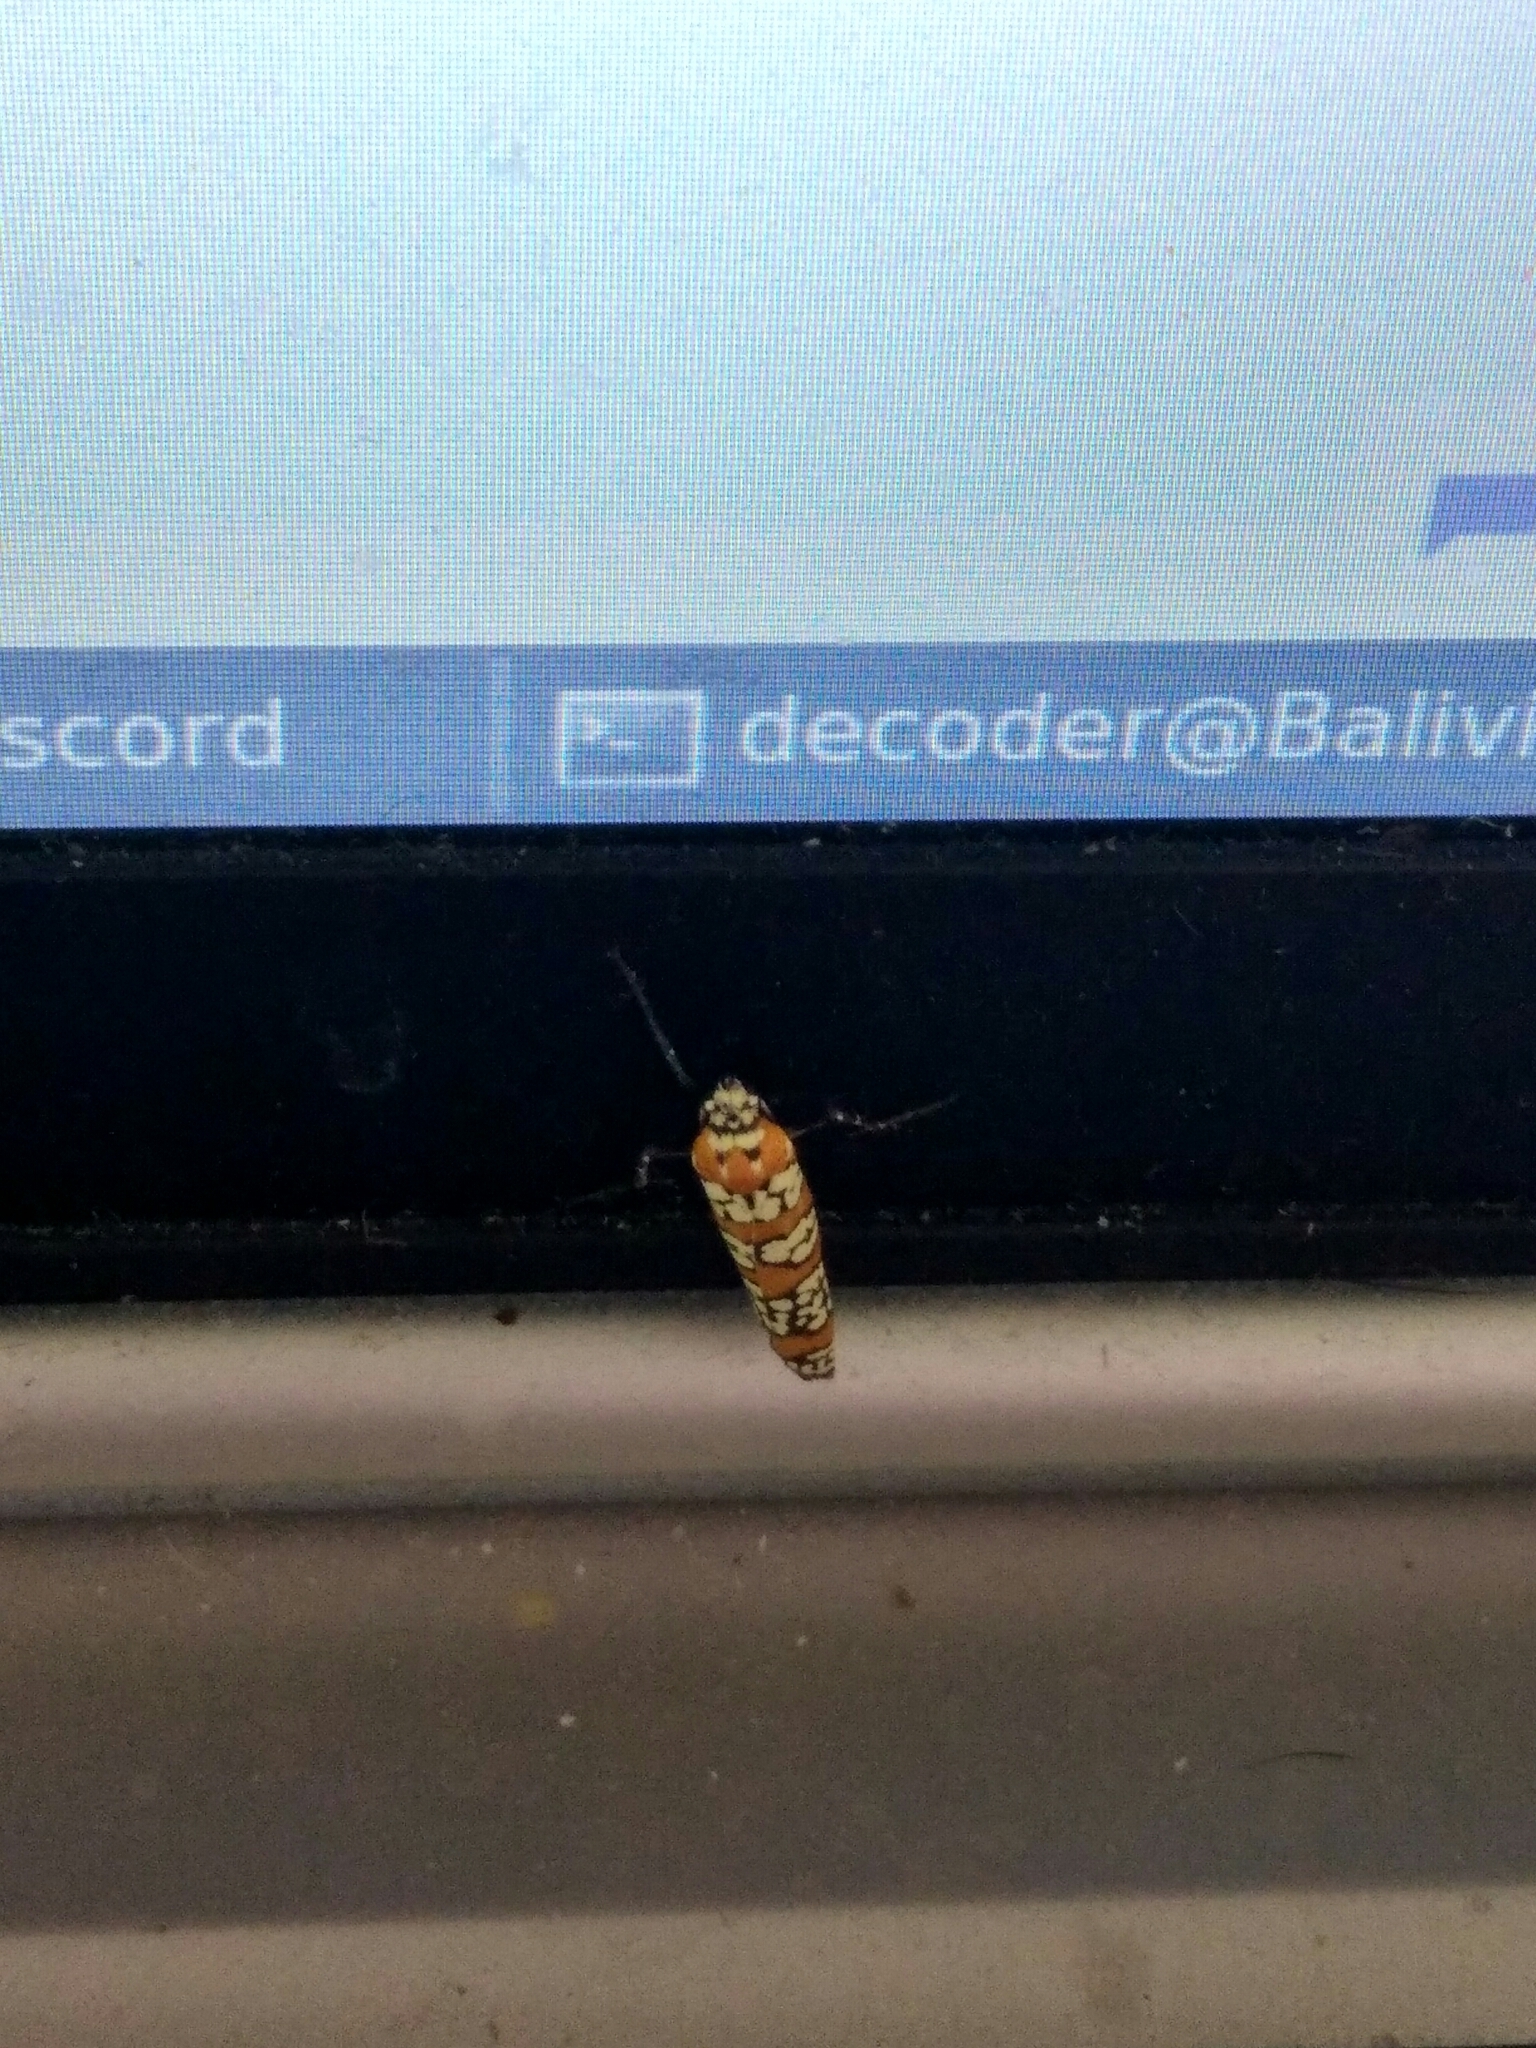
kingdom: Animalia
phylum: Arthropoda
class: Insecta
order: Lepidoptera
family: Attevidae
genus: Atteva
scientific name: Atteva punctella
